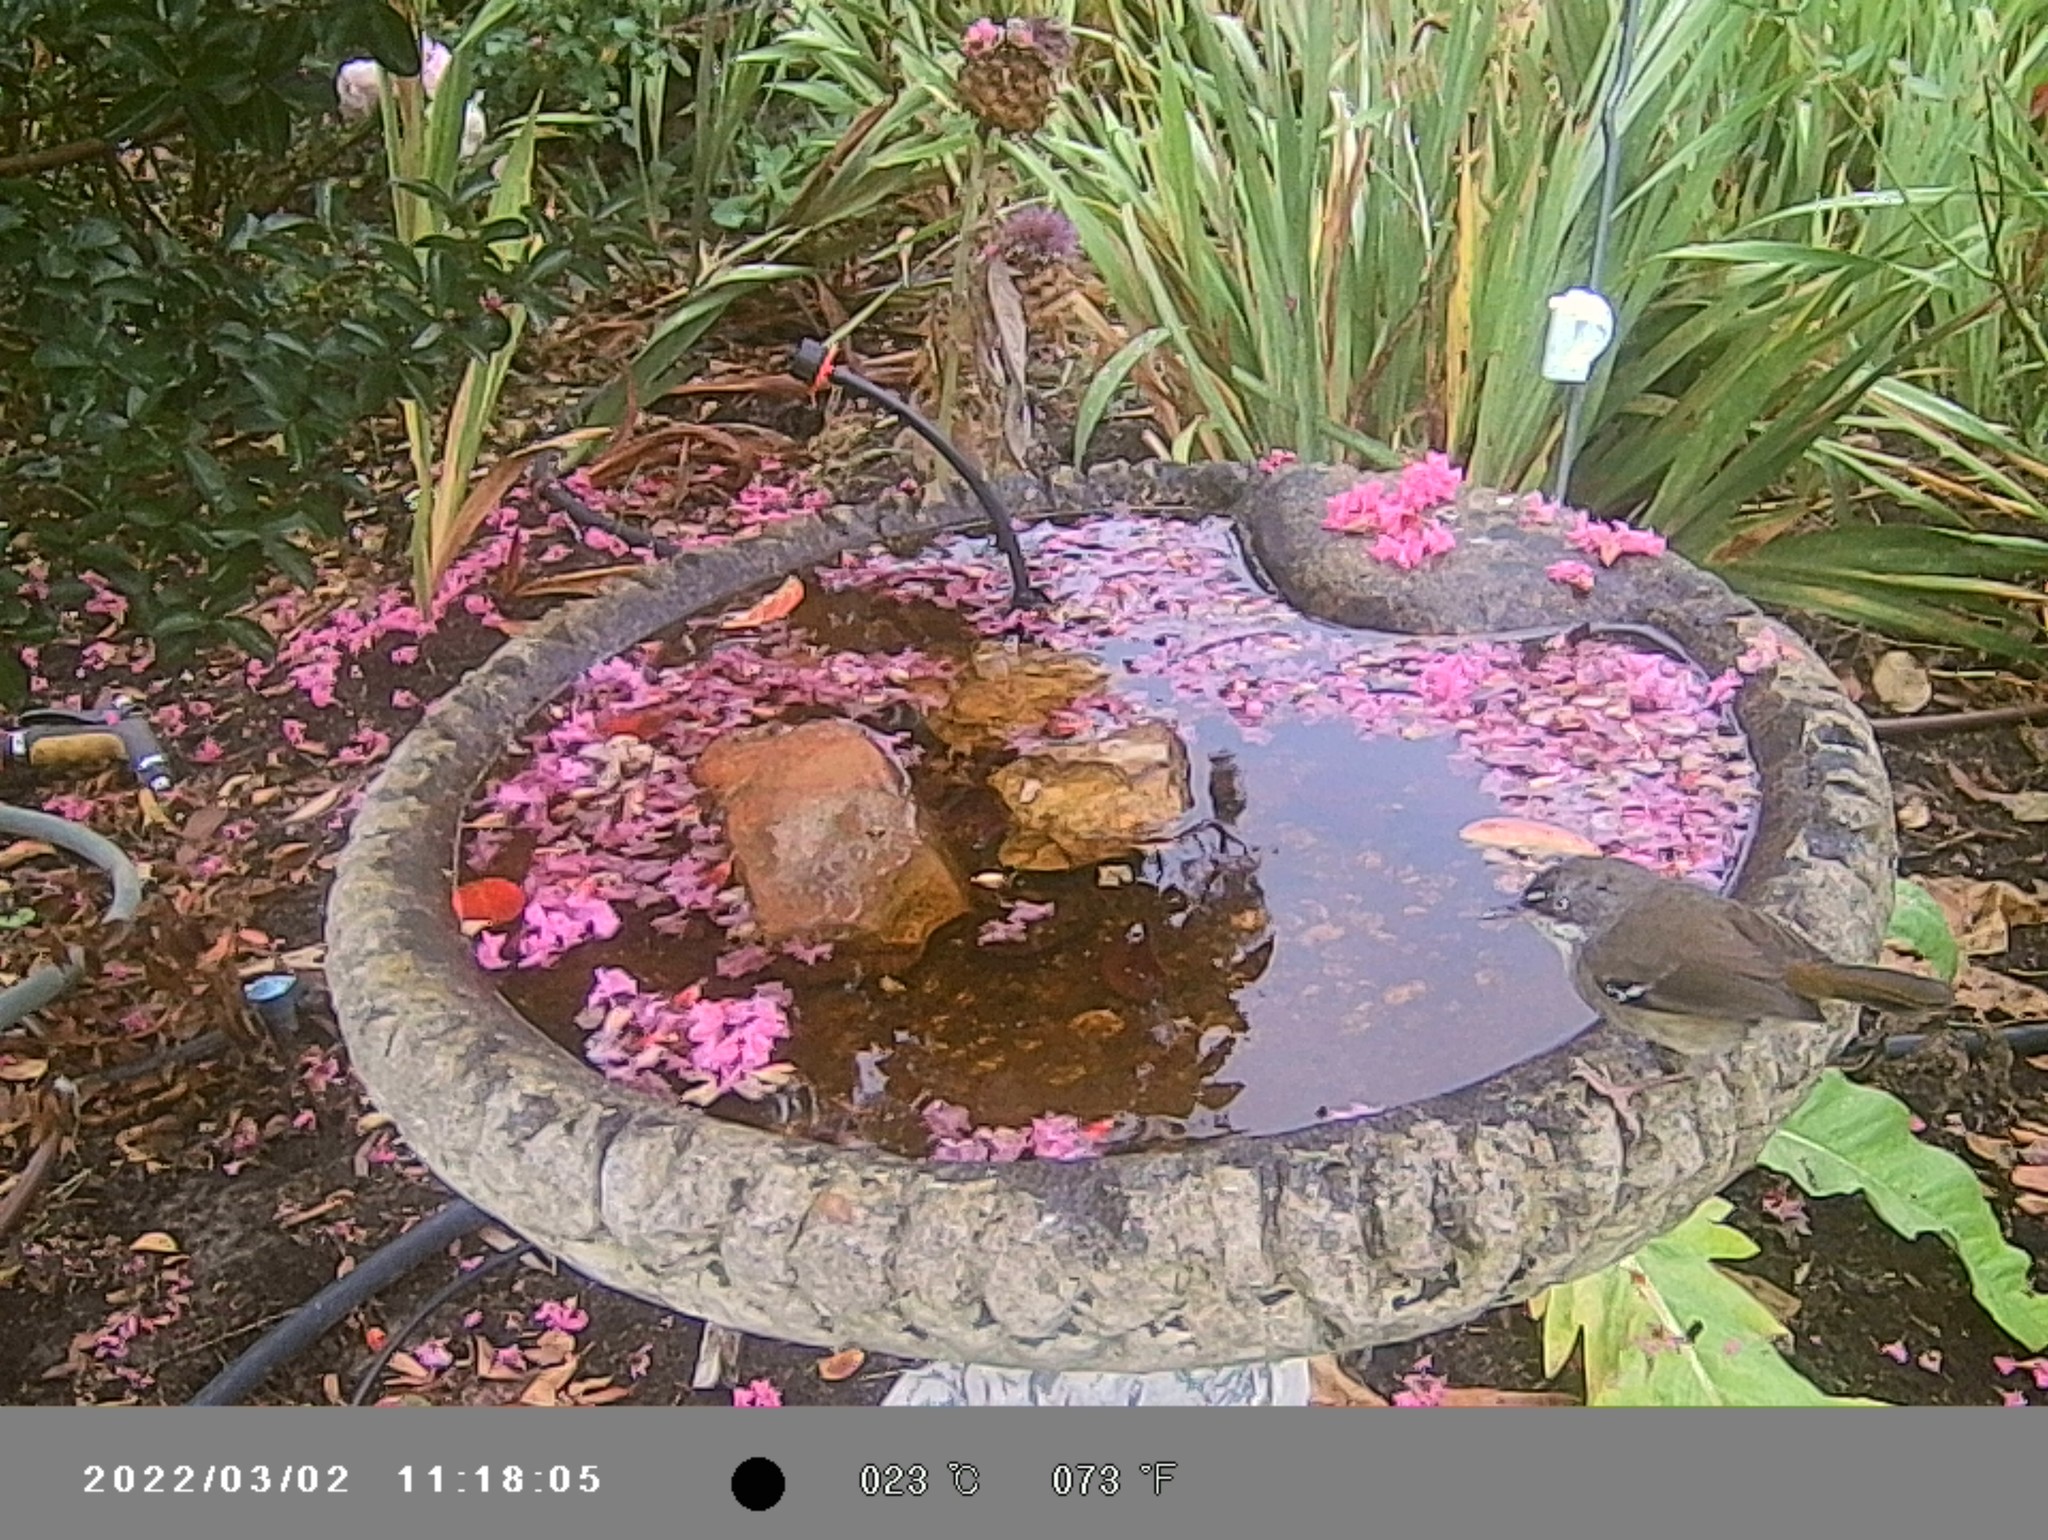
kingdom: Animalia
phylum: Chordata
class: Aves
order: Passeriformes
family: Acanthizidae
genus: Sericornis
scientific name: Sericornis frontalis
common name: White-browed scrubwren
